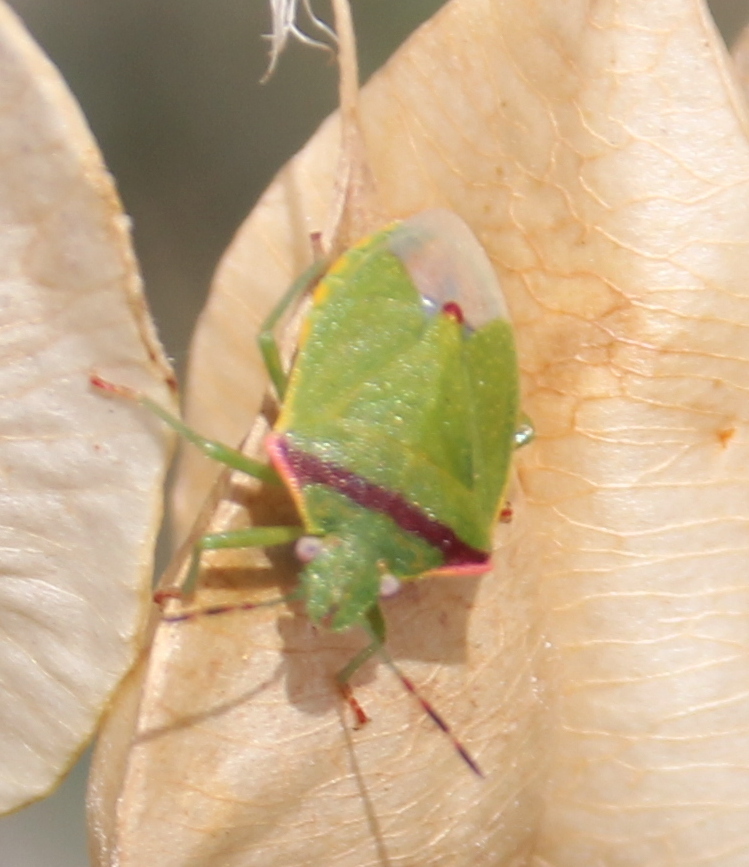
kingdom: Animalia
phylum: Arthropoda
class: Insecta
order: Hemiptera
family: Pentatomidae
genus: Thyanta
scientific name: Thyanta pallidovirens
